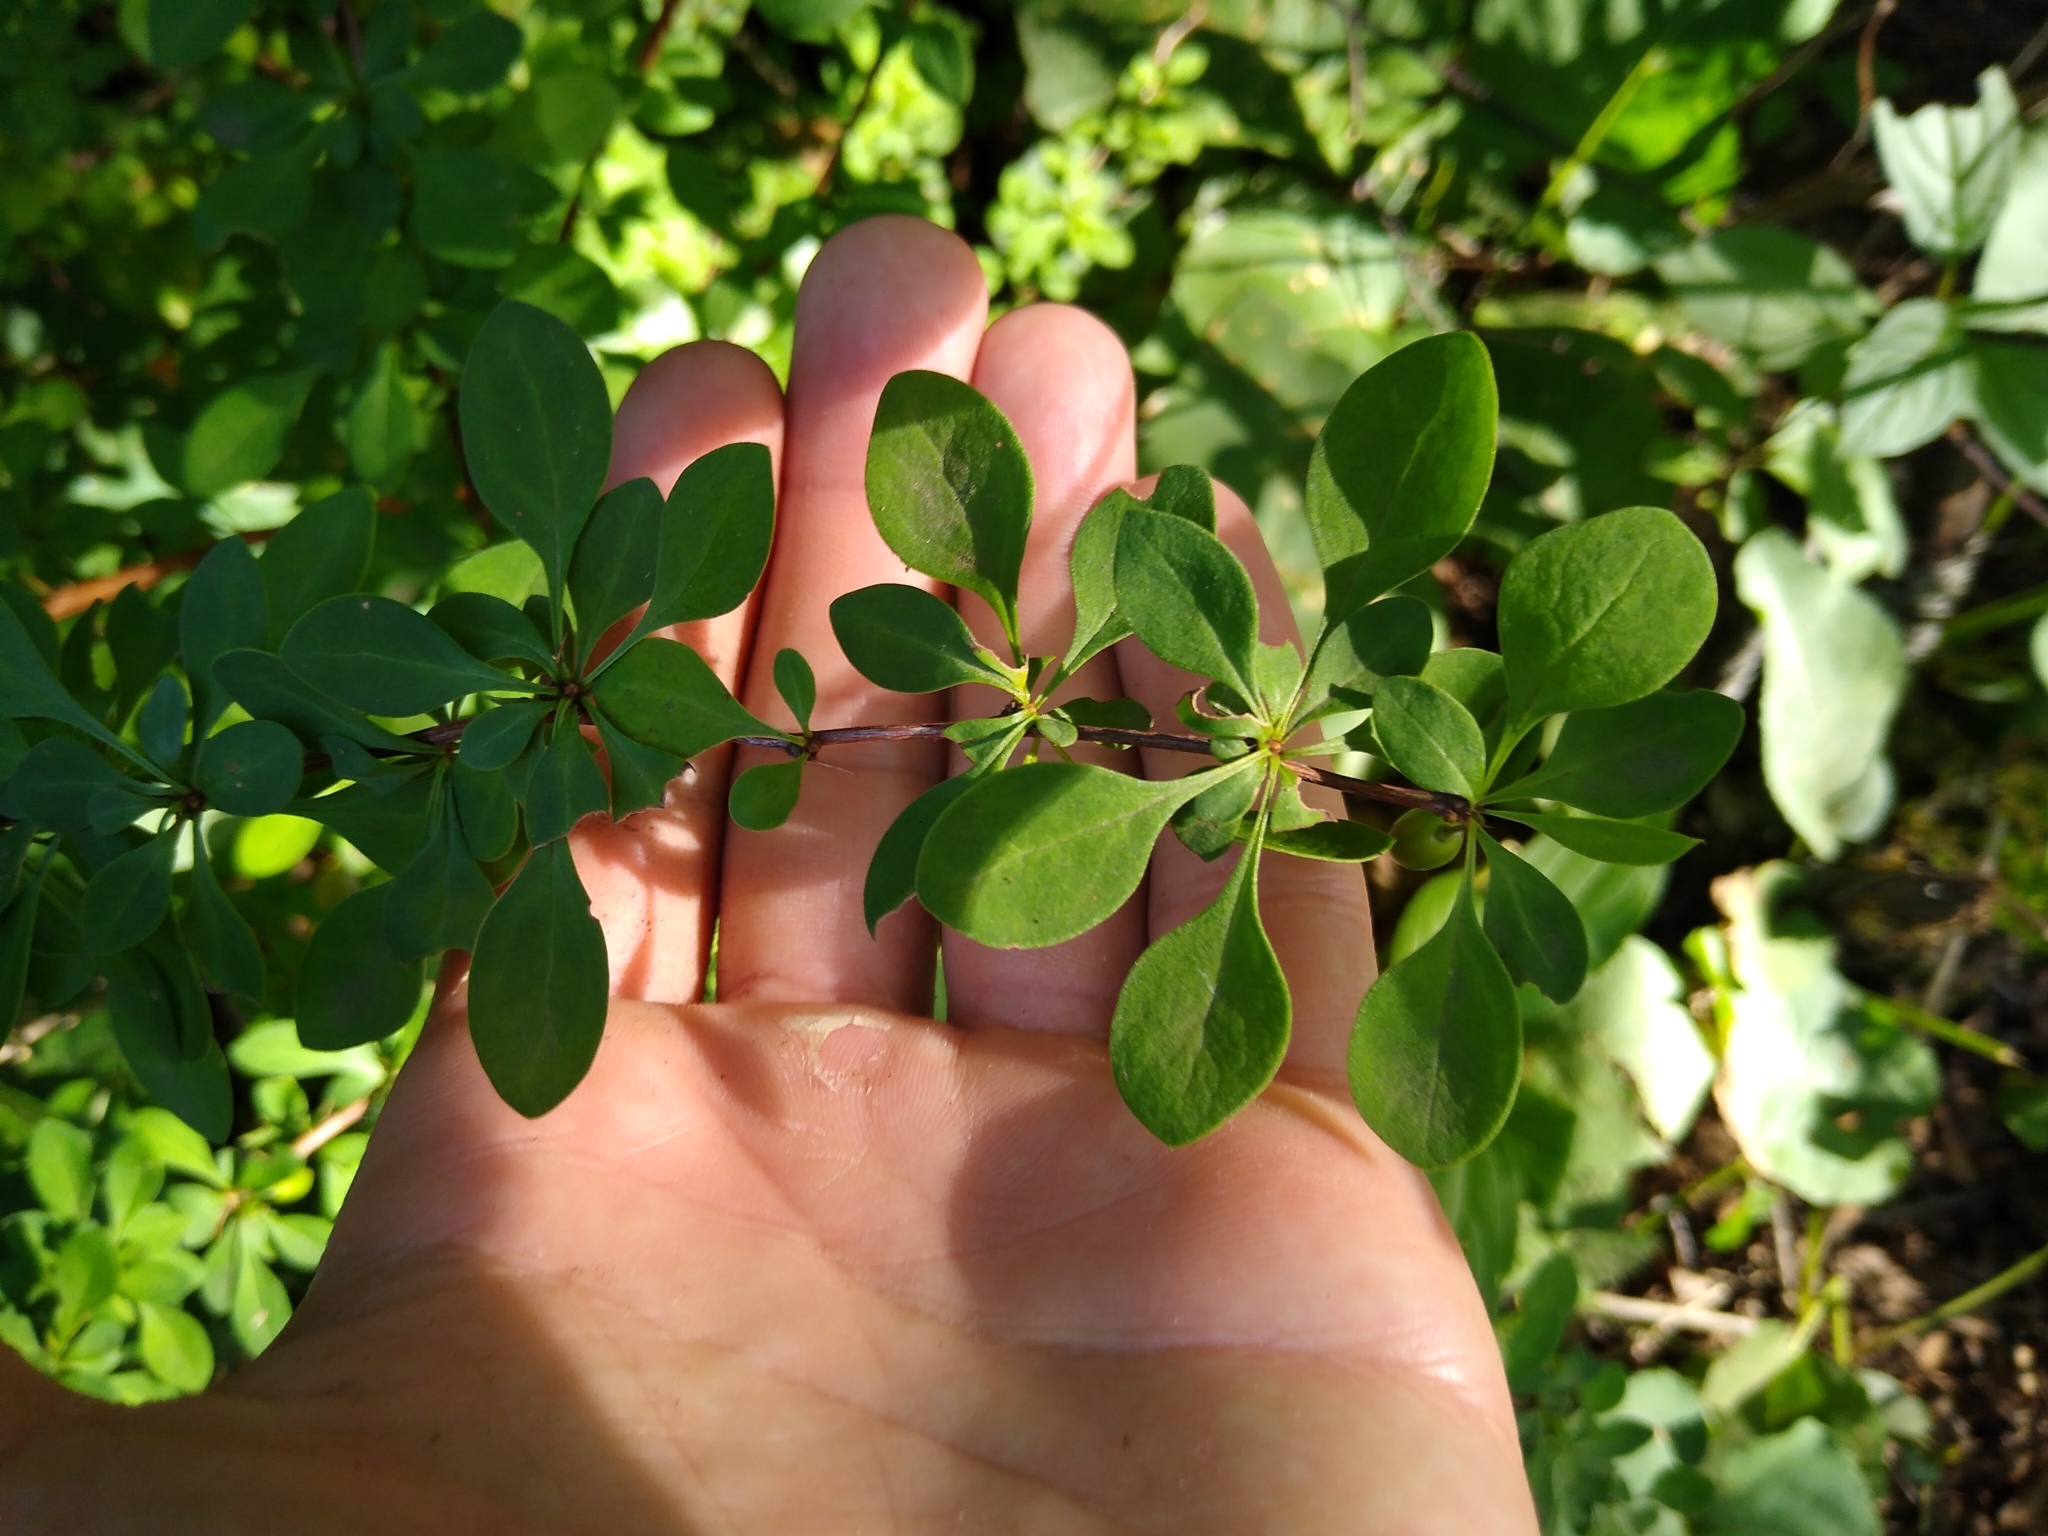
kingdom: Plantae
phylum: Tracheophyta
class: Magnoliopsida
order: Ranunculales
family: Berberidaceae
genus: Berberis
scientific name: Berberis thunbergii
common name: Japanese barberry
